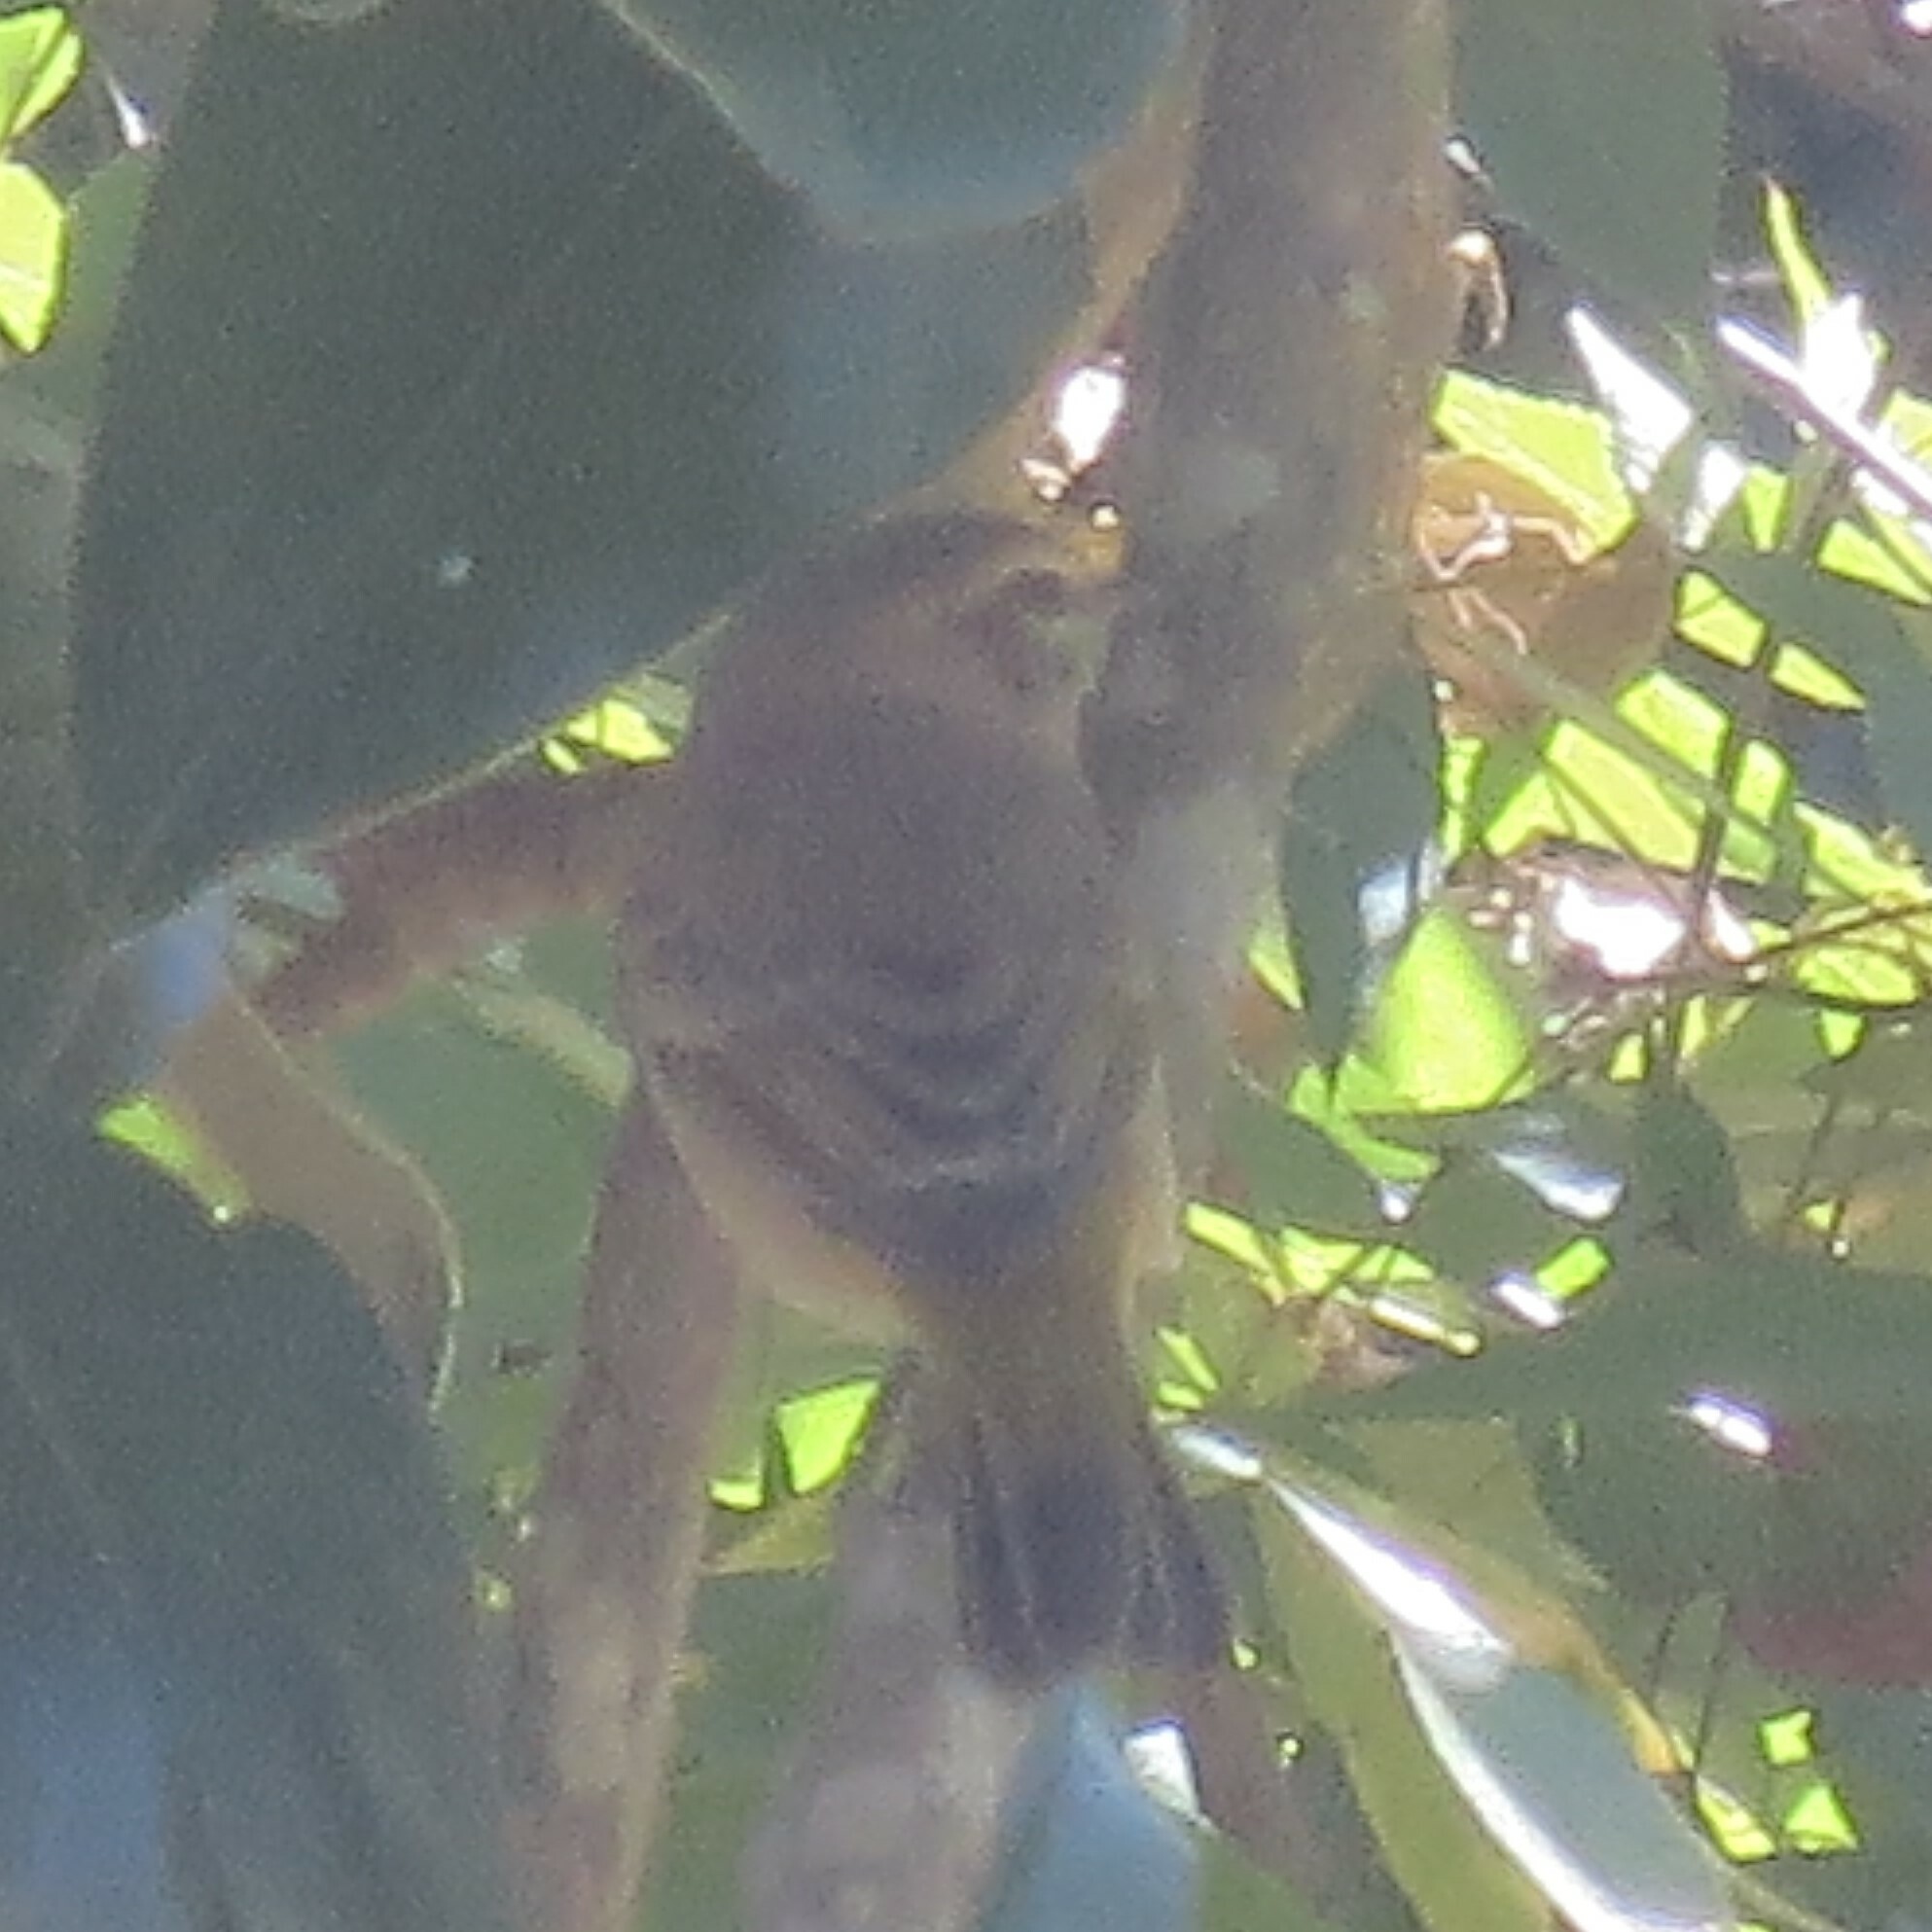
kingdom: Animalia
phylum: Chordata
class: Aves
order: Passeriformes
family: Parulidae
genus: Setophaga
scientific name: Setophaga palmarum
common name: Palm warbler
